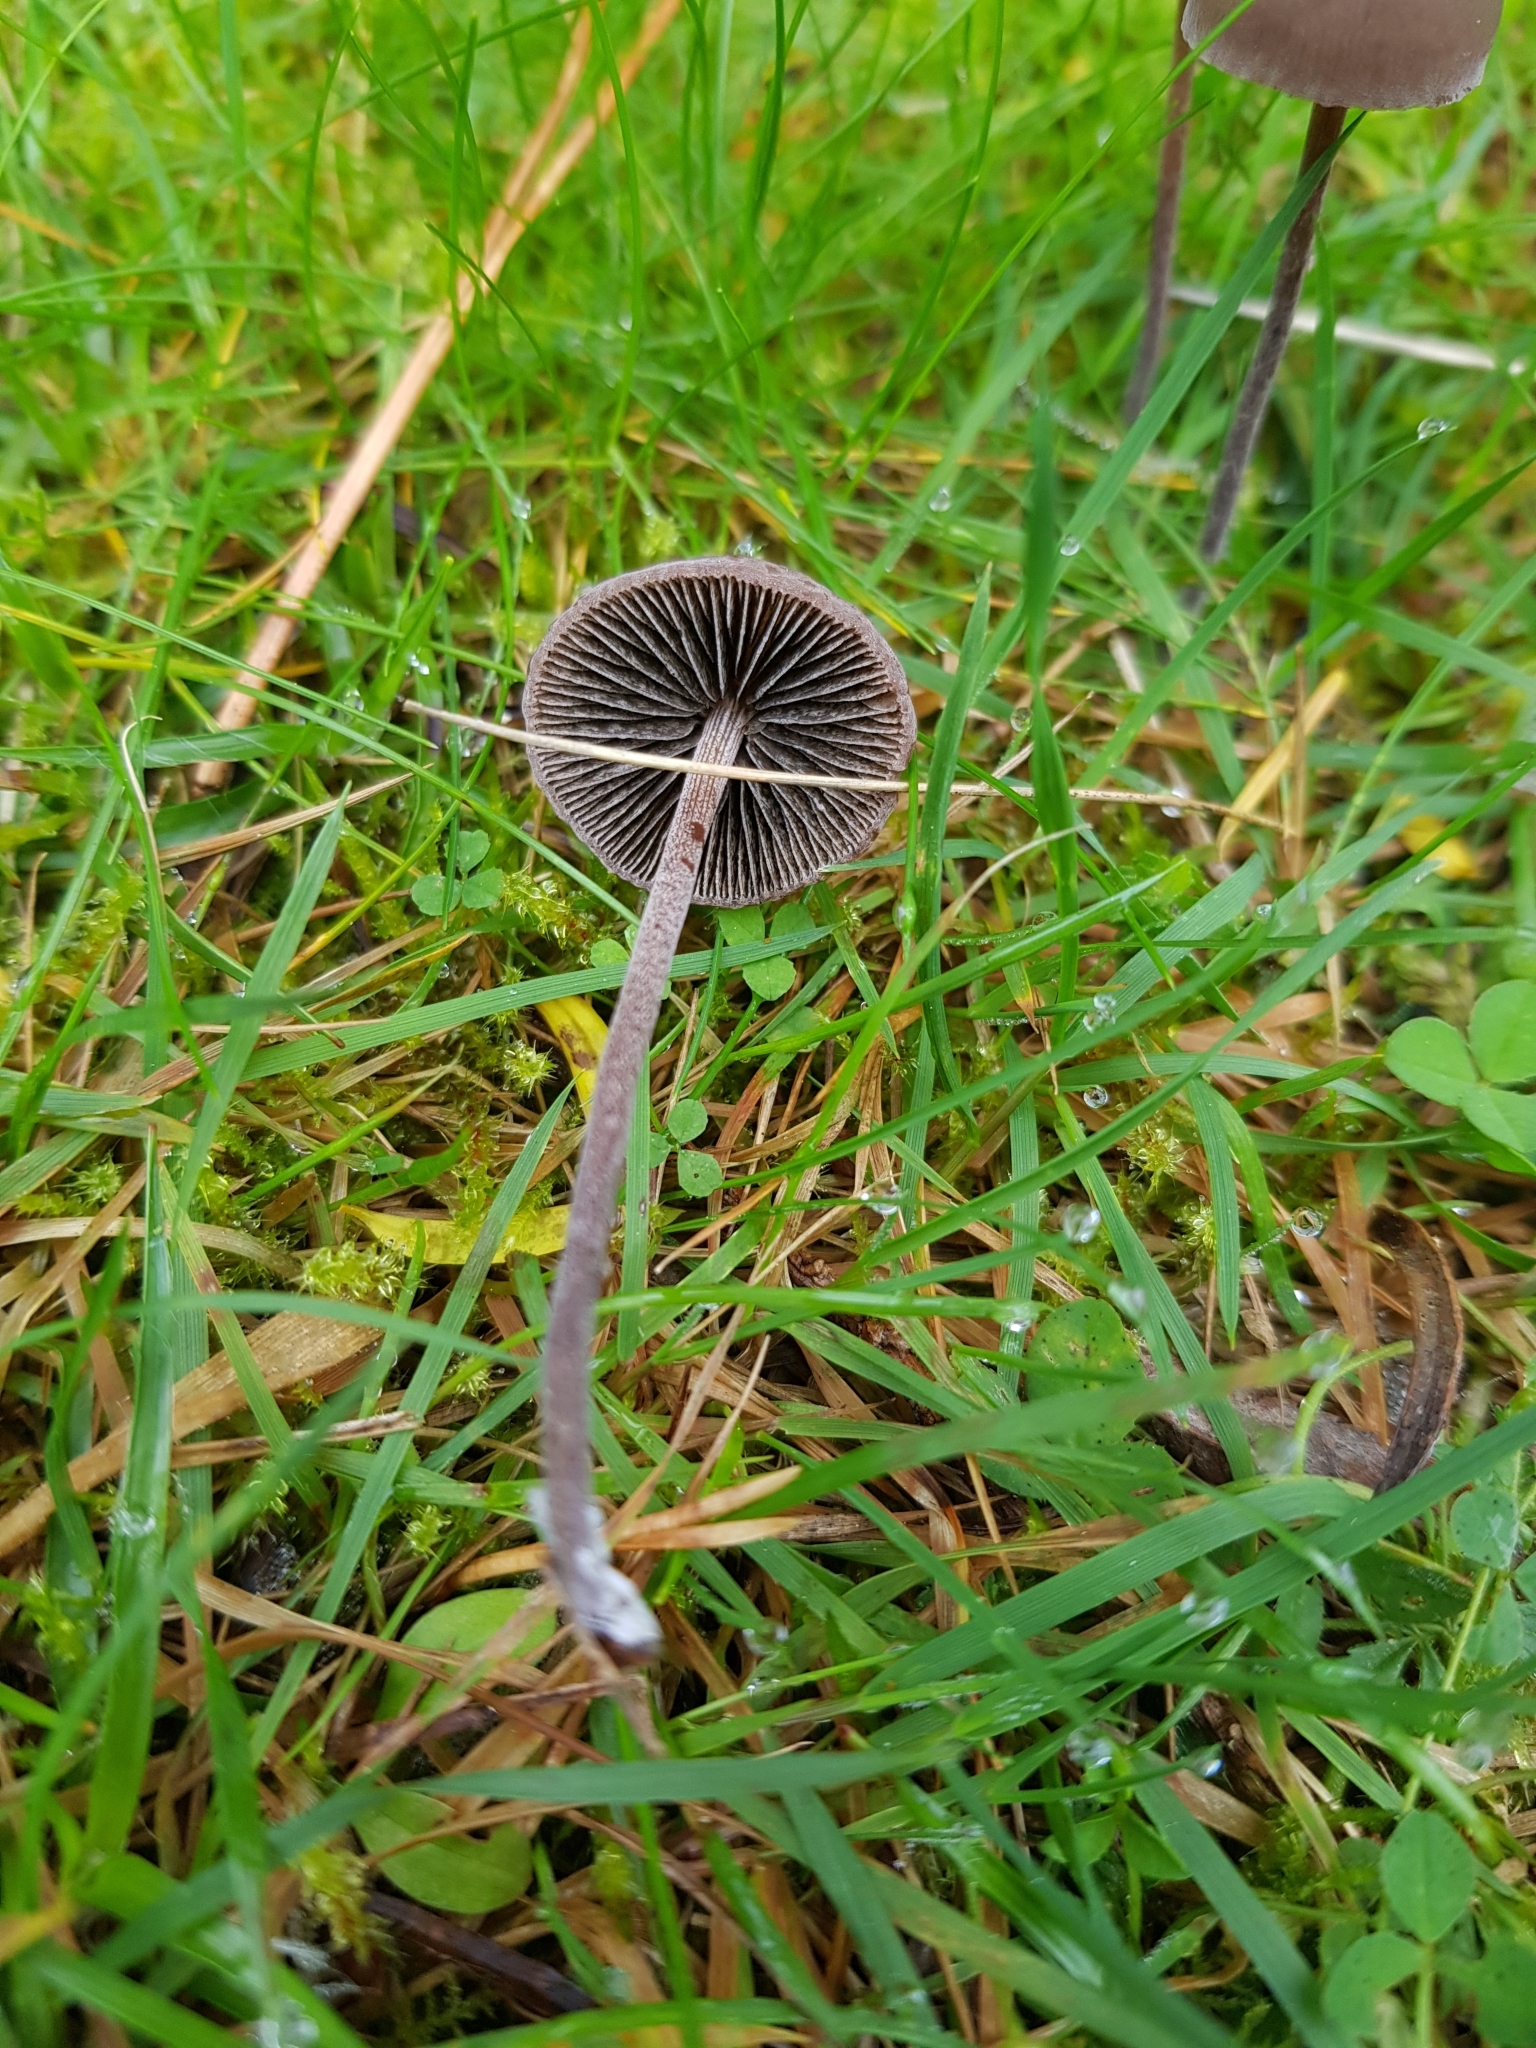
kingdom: Fungi
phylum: Basidiomycota
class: Agaricomycetes
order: Agaricales
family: Bolbitiaceae
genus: Panaeolus
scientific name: Panaeolus acuminatus
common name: Dewdrop mottlegill
